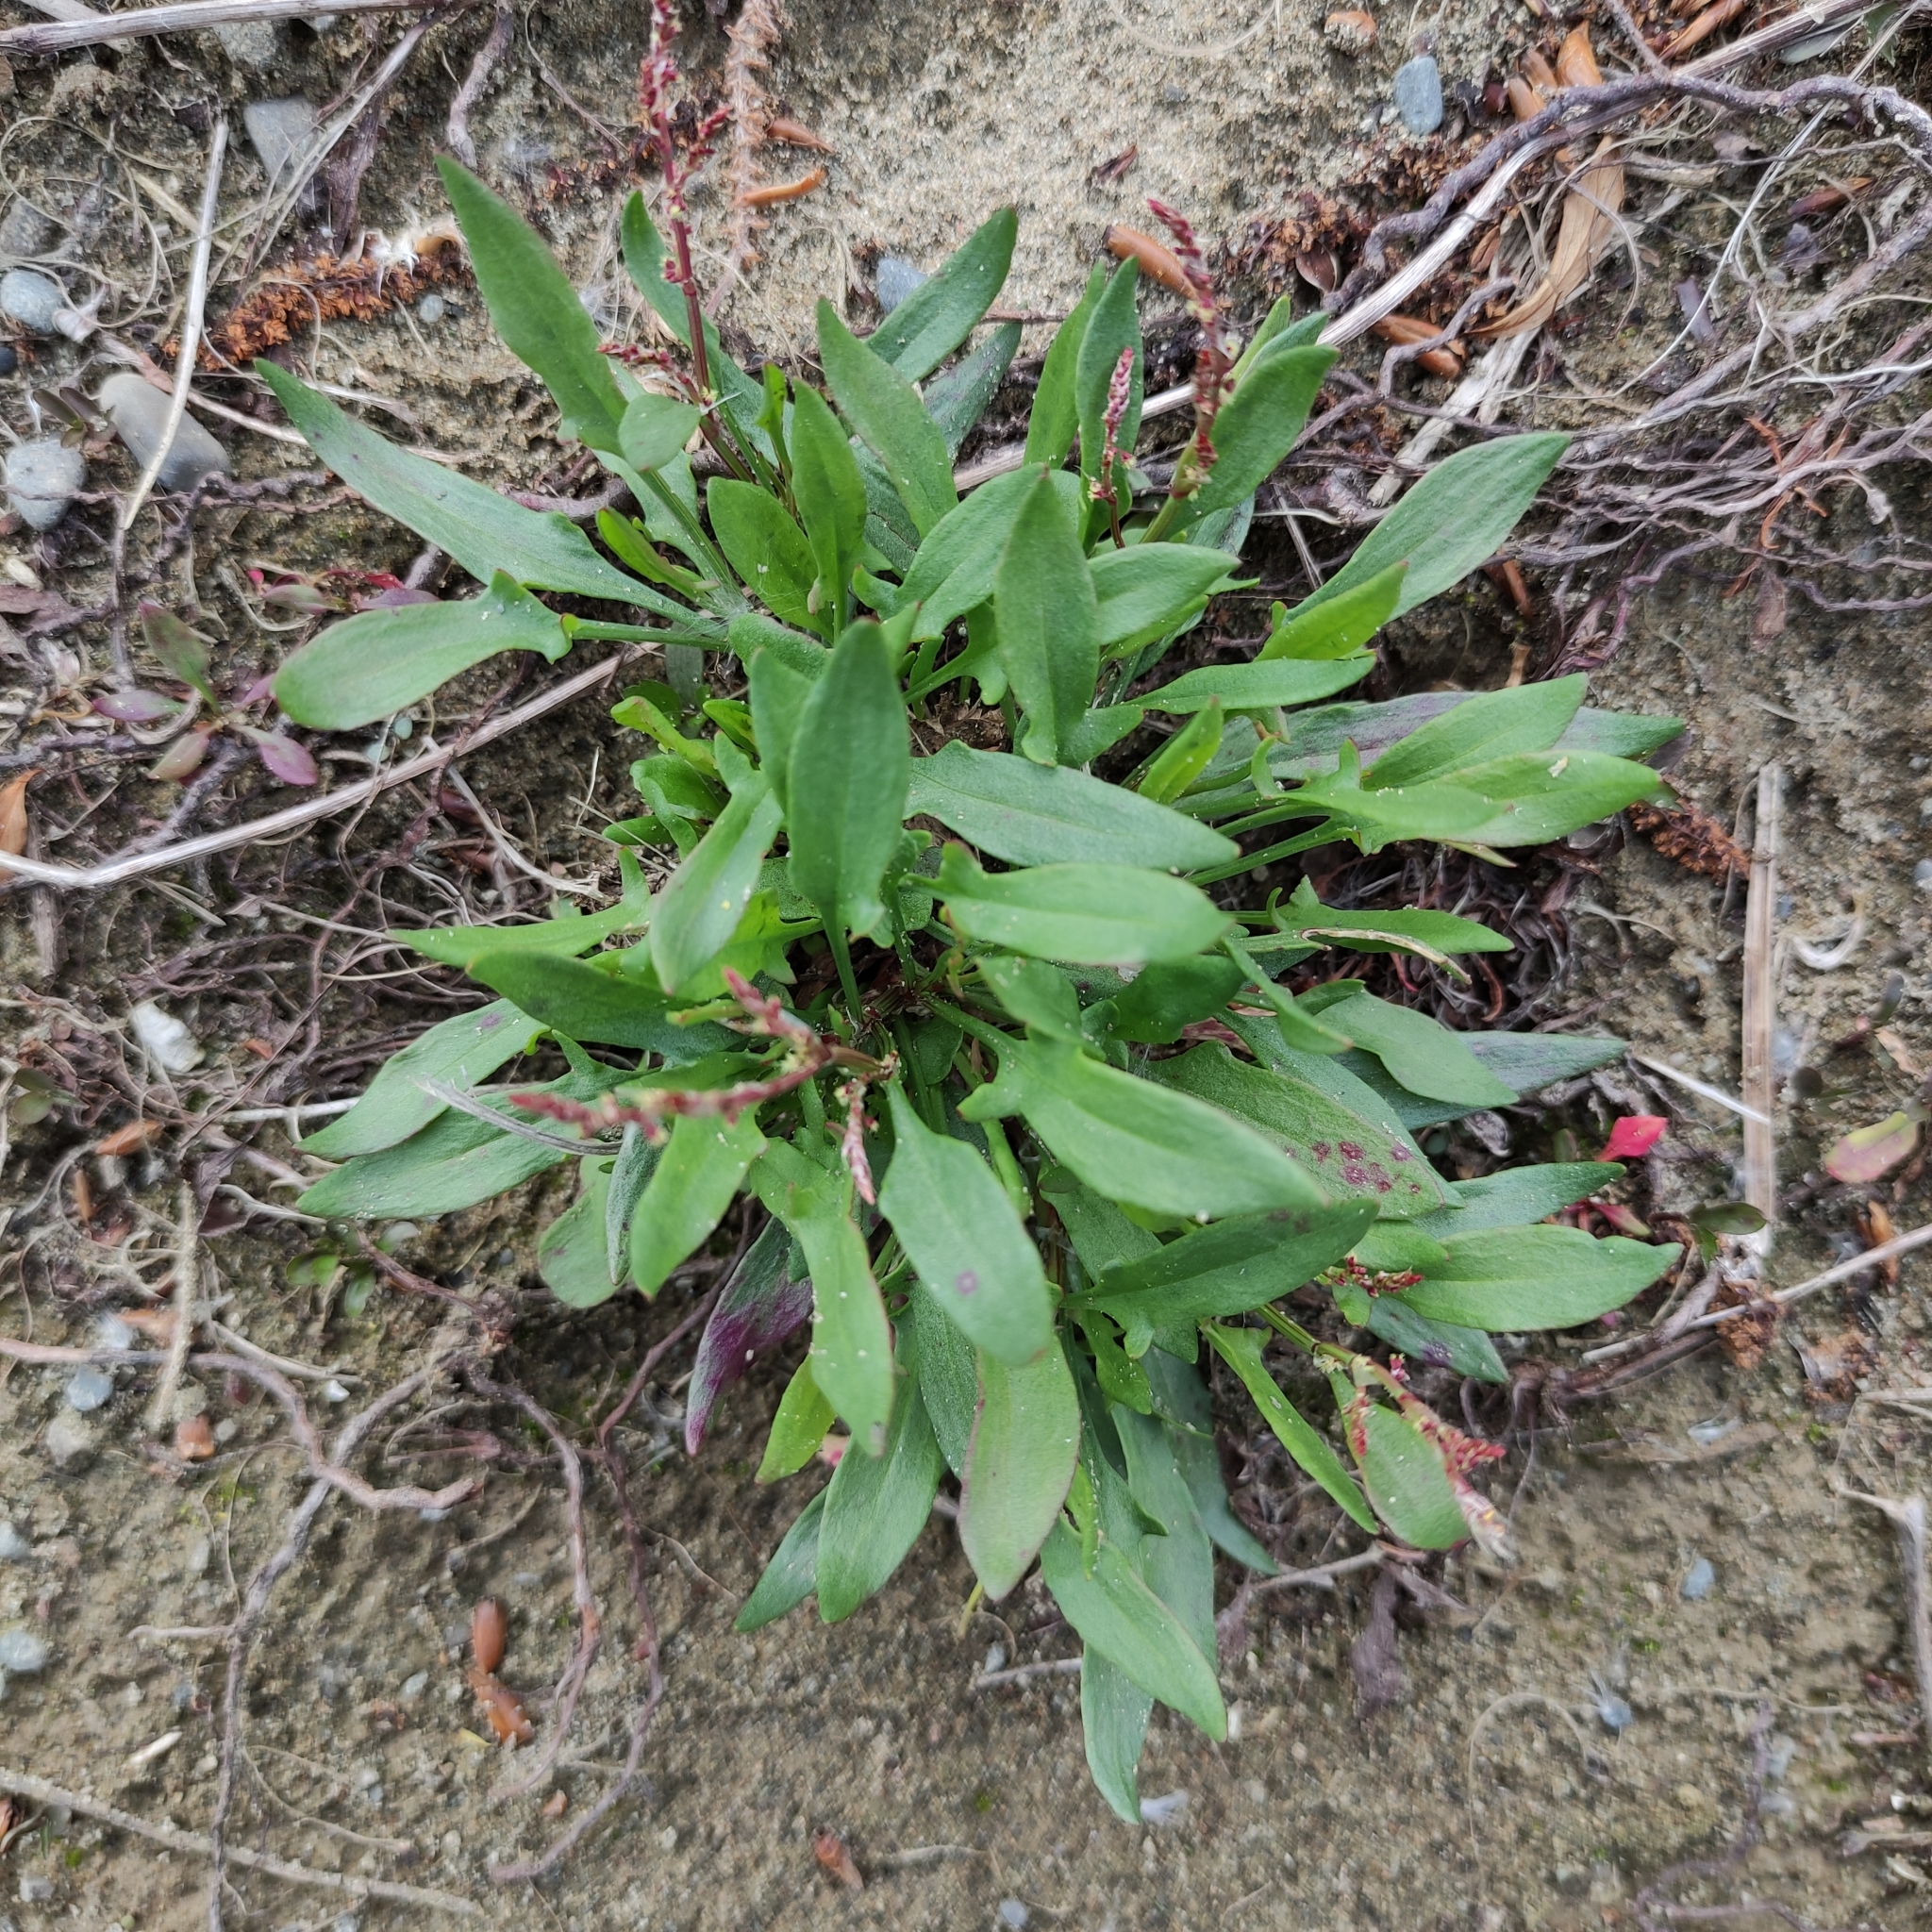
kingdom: Plantae
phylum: Tracheophyta
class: Magnoliopsida
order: Caryophyllales
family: Polygonaceae
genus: Rumex
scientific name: Rumex acetosella
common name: Common sheep sorrel
